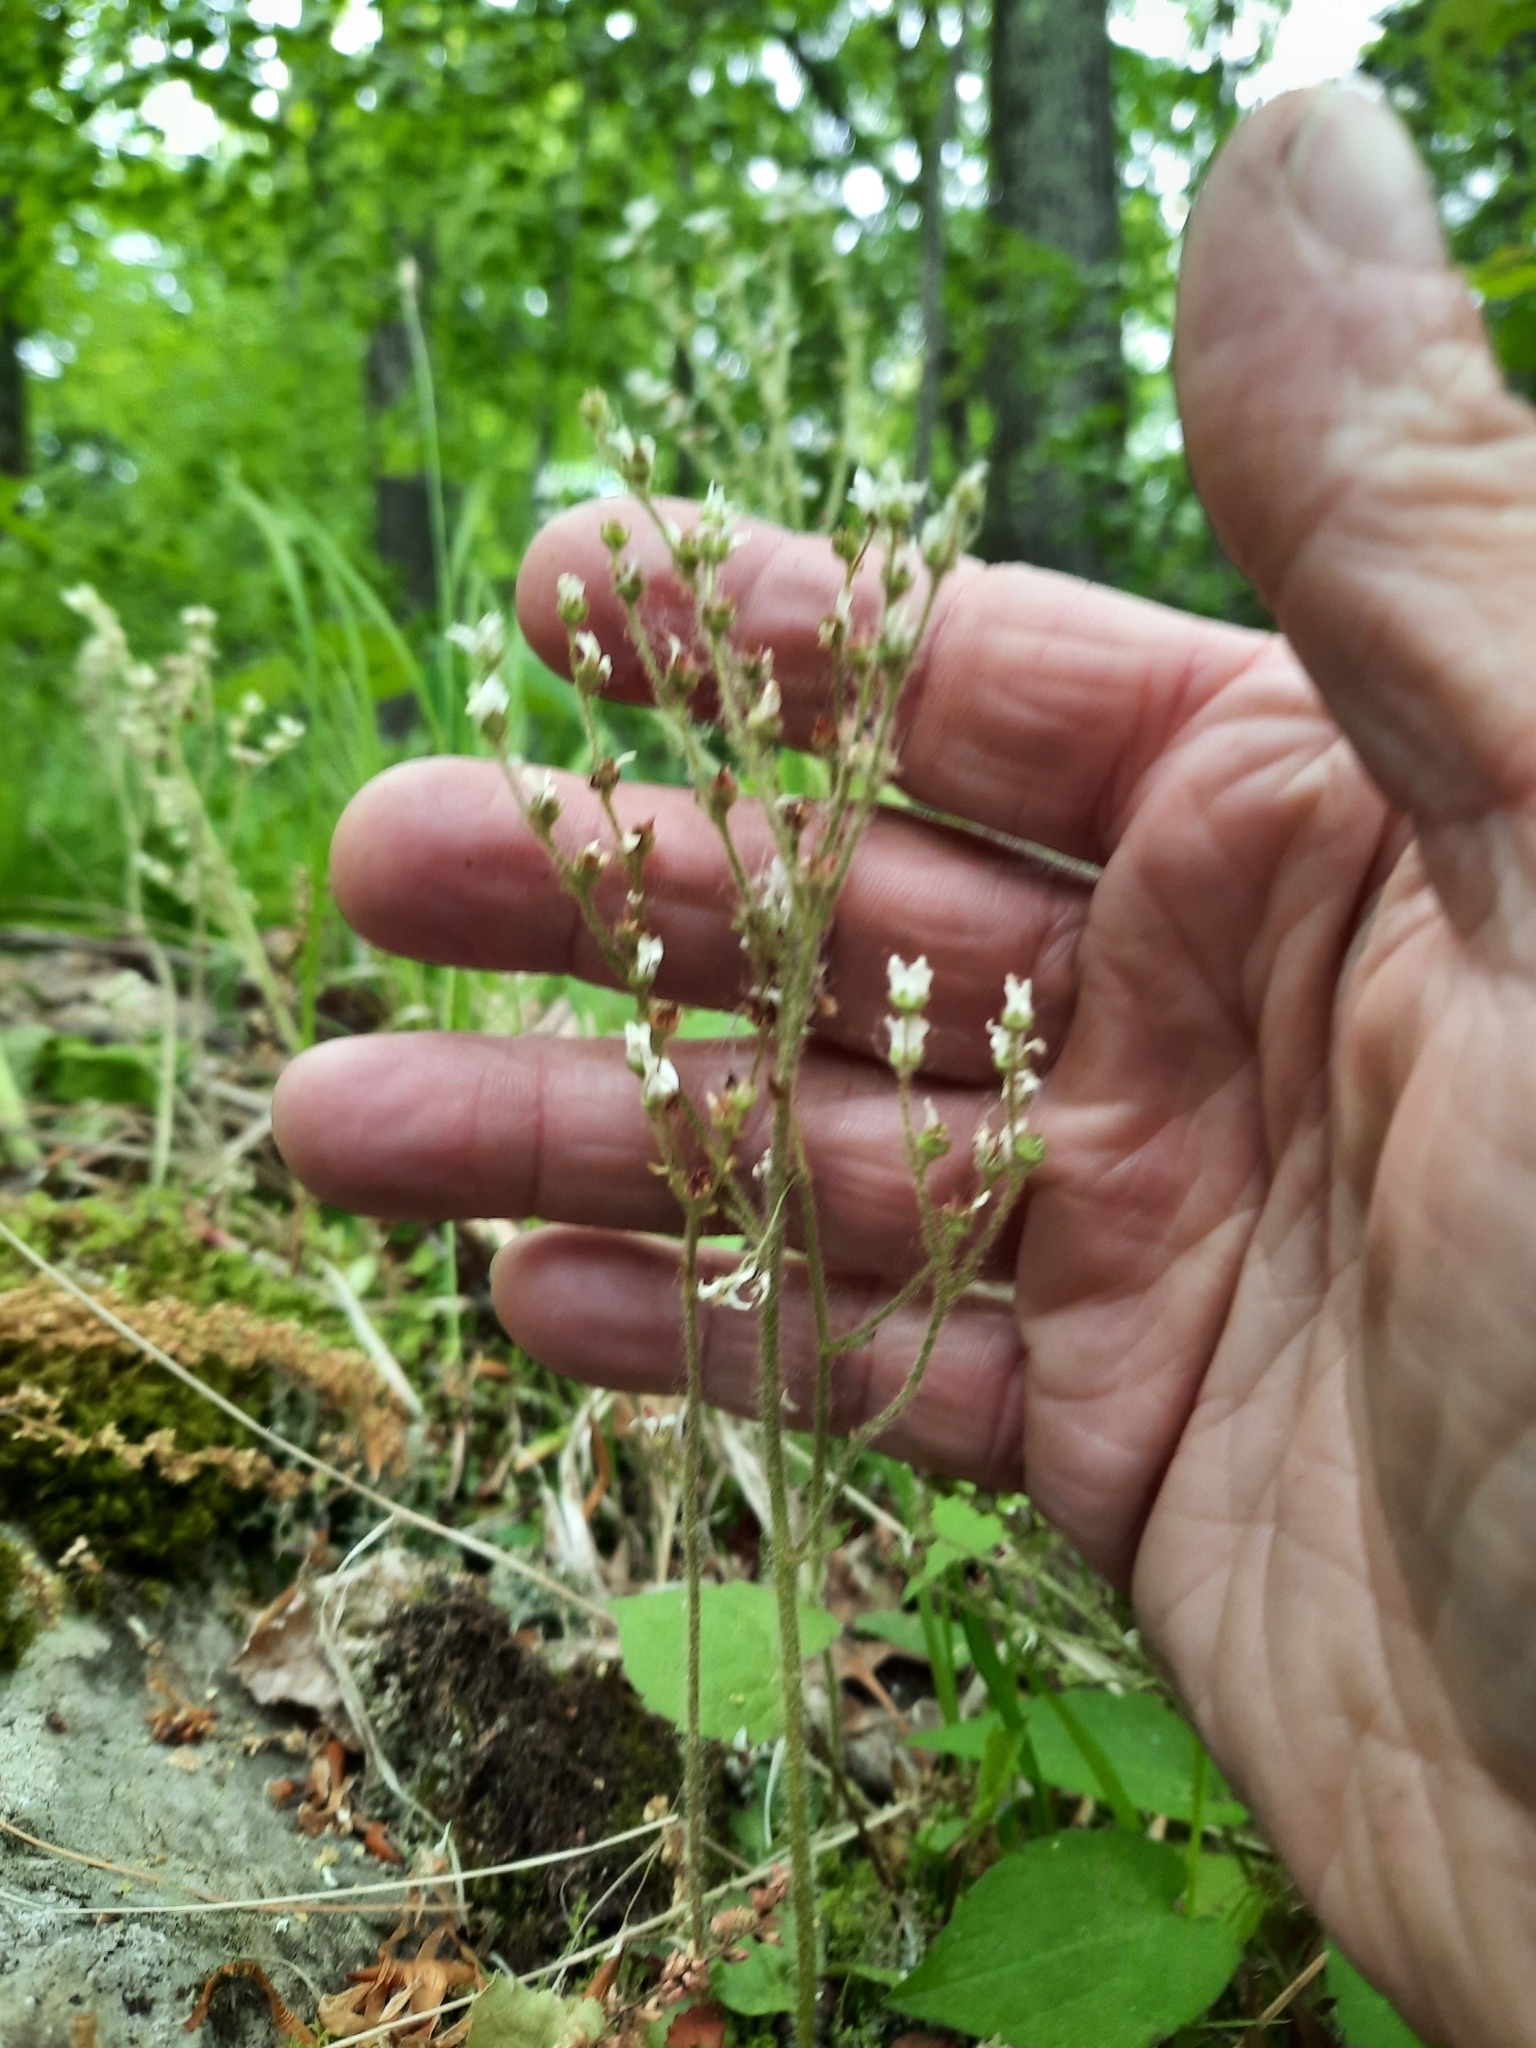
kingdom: Plantae
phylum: Tracheophyta
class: Magnoliopsida
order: Saxifragales
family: Saxifragaceae
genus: Micranthes
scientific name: Micranthes virginiensis
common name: Early saxifrage
